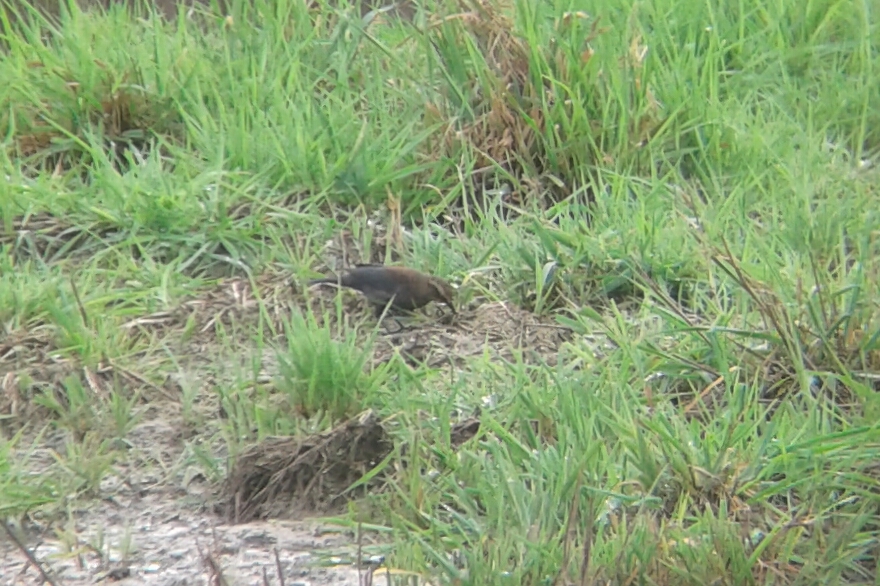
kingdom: Animalia
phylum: Chordata
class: Aves
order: Passeriformes
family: Icteridae
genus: Euphagus
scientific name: Euphagus carolinus
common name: Rusty blackbird
